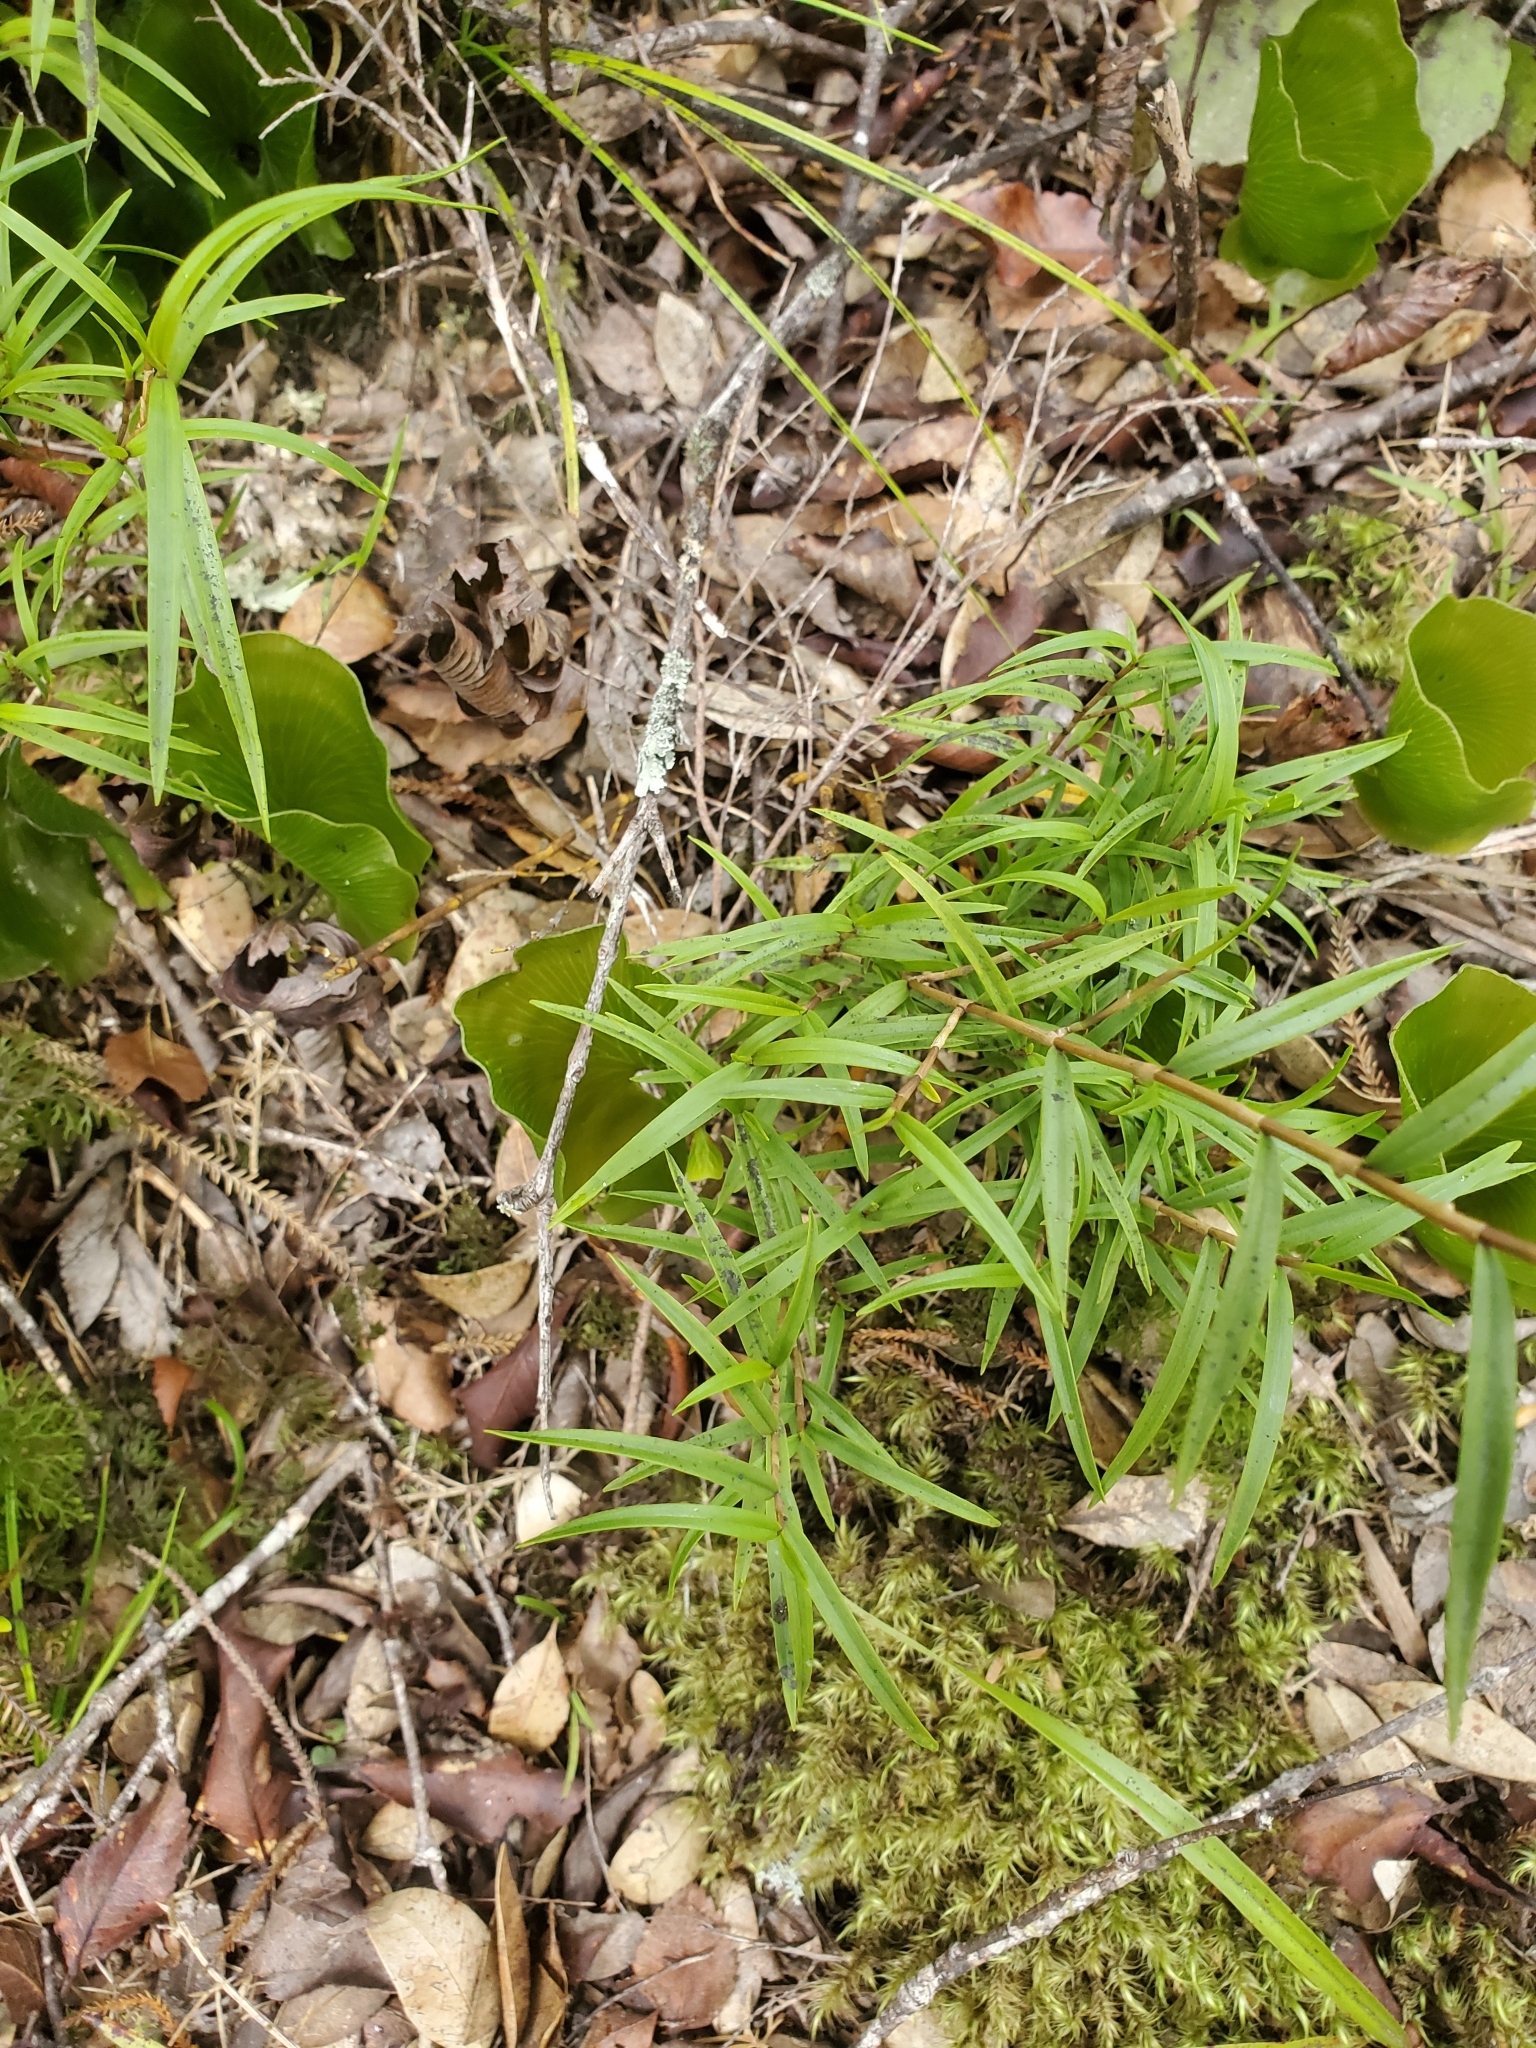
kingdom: Plantae
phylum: Tracheophyta
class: Liliopsida
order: Asparagales
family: Orchidaceae
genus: Dendrobium
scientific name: Dendrobium cunninghamii
